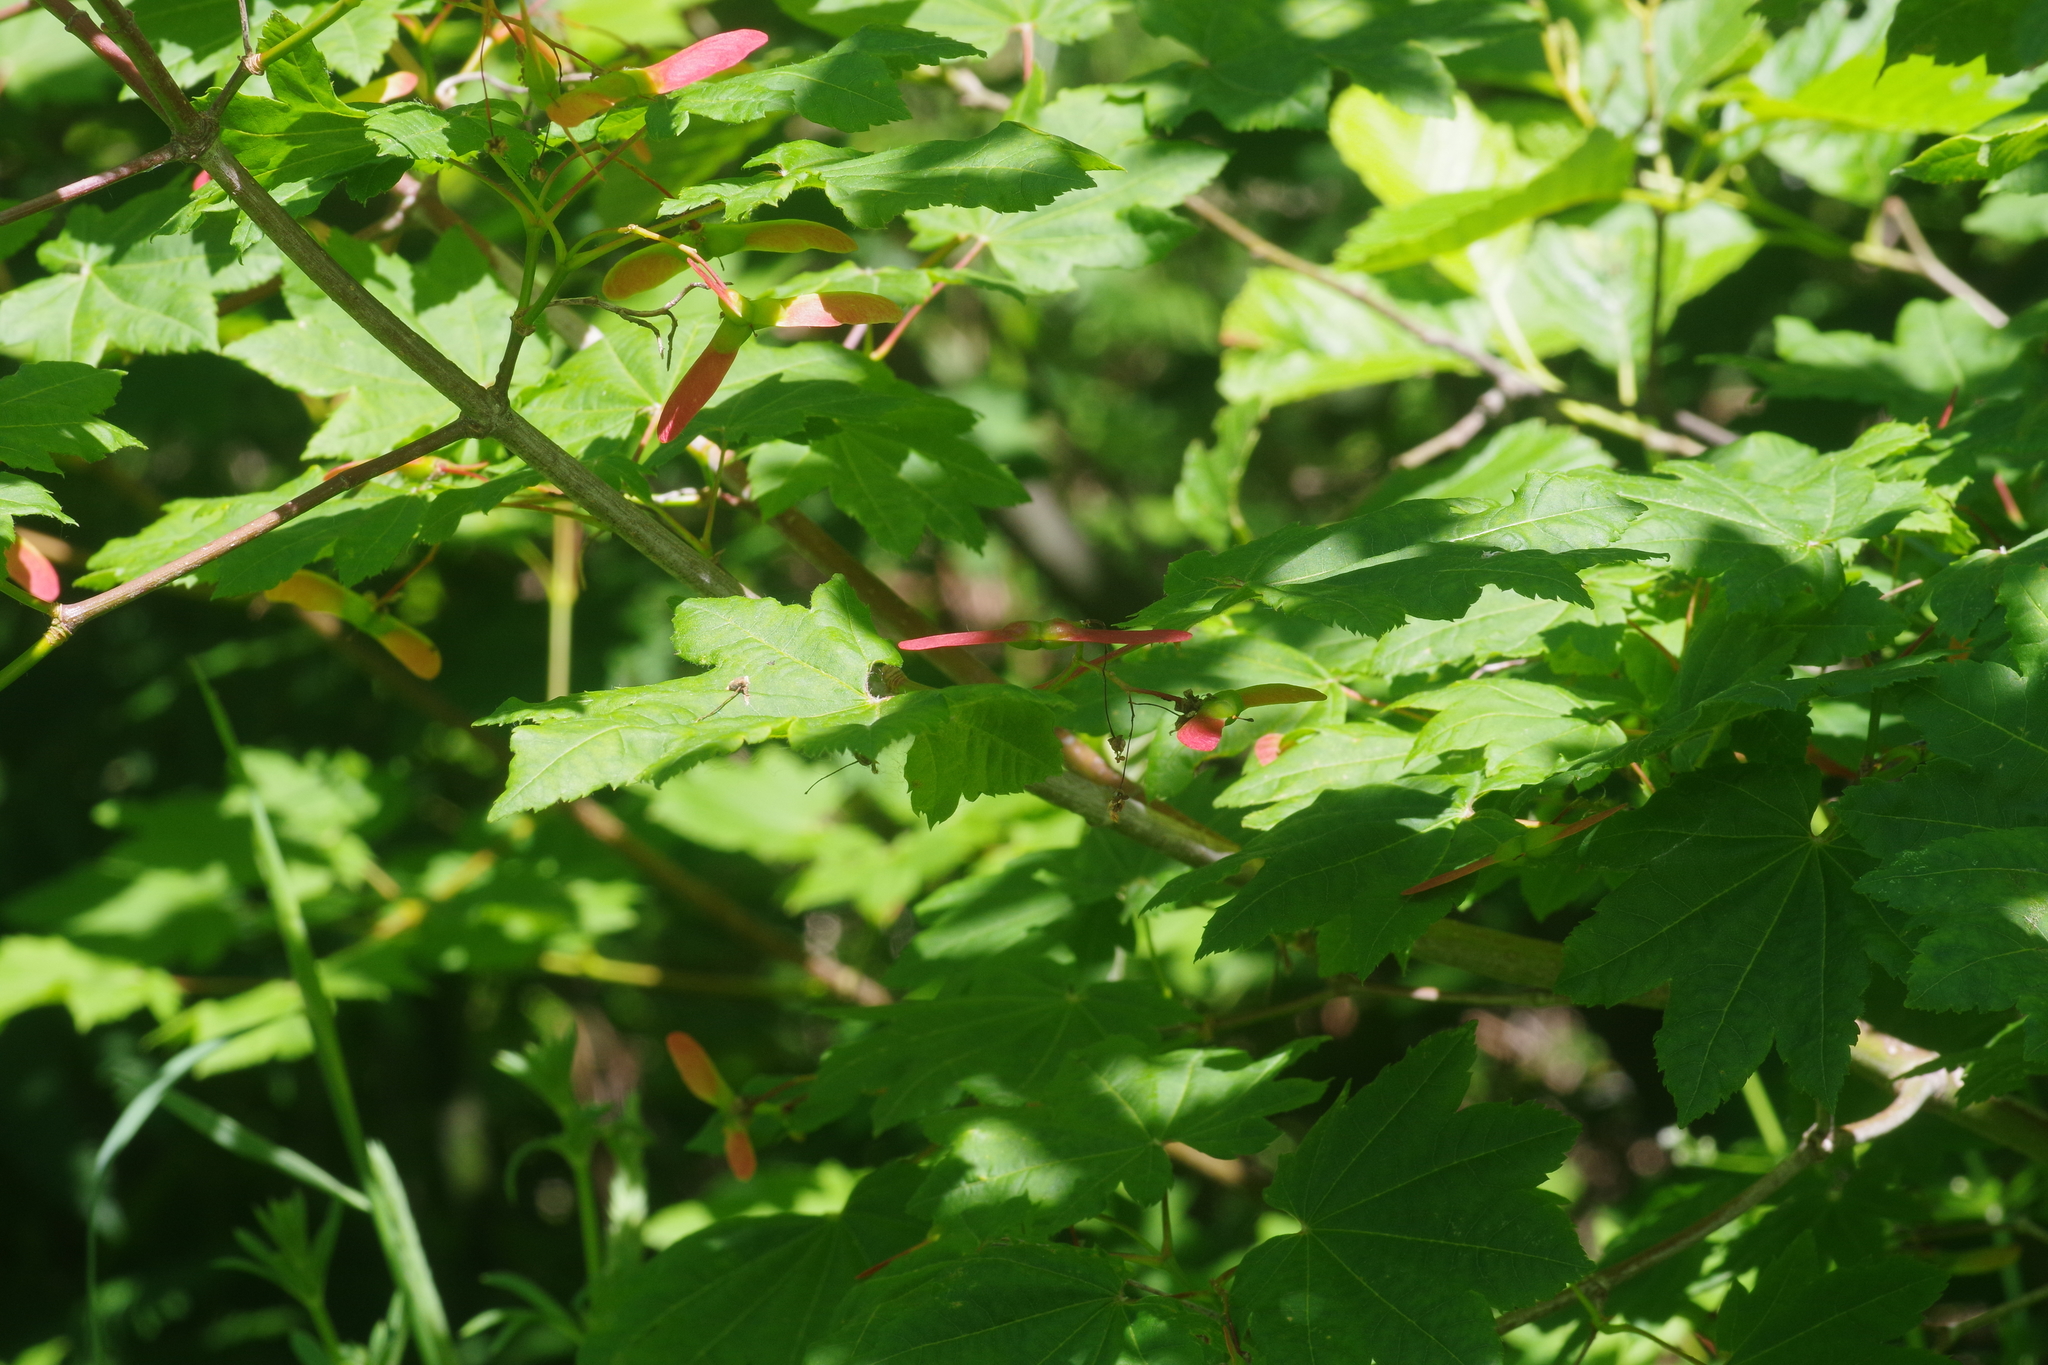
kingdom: Plantae
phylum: Tracheophyta
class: Magnoliopsida
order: Sapindales
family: Sapindaceae
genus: Acer
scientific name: Acer circinatum
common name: Vine maple
